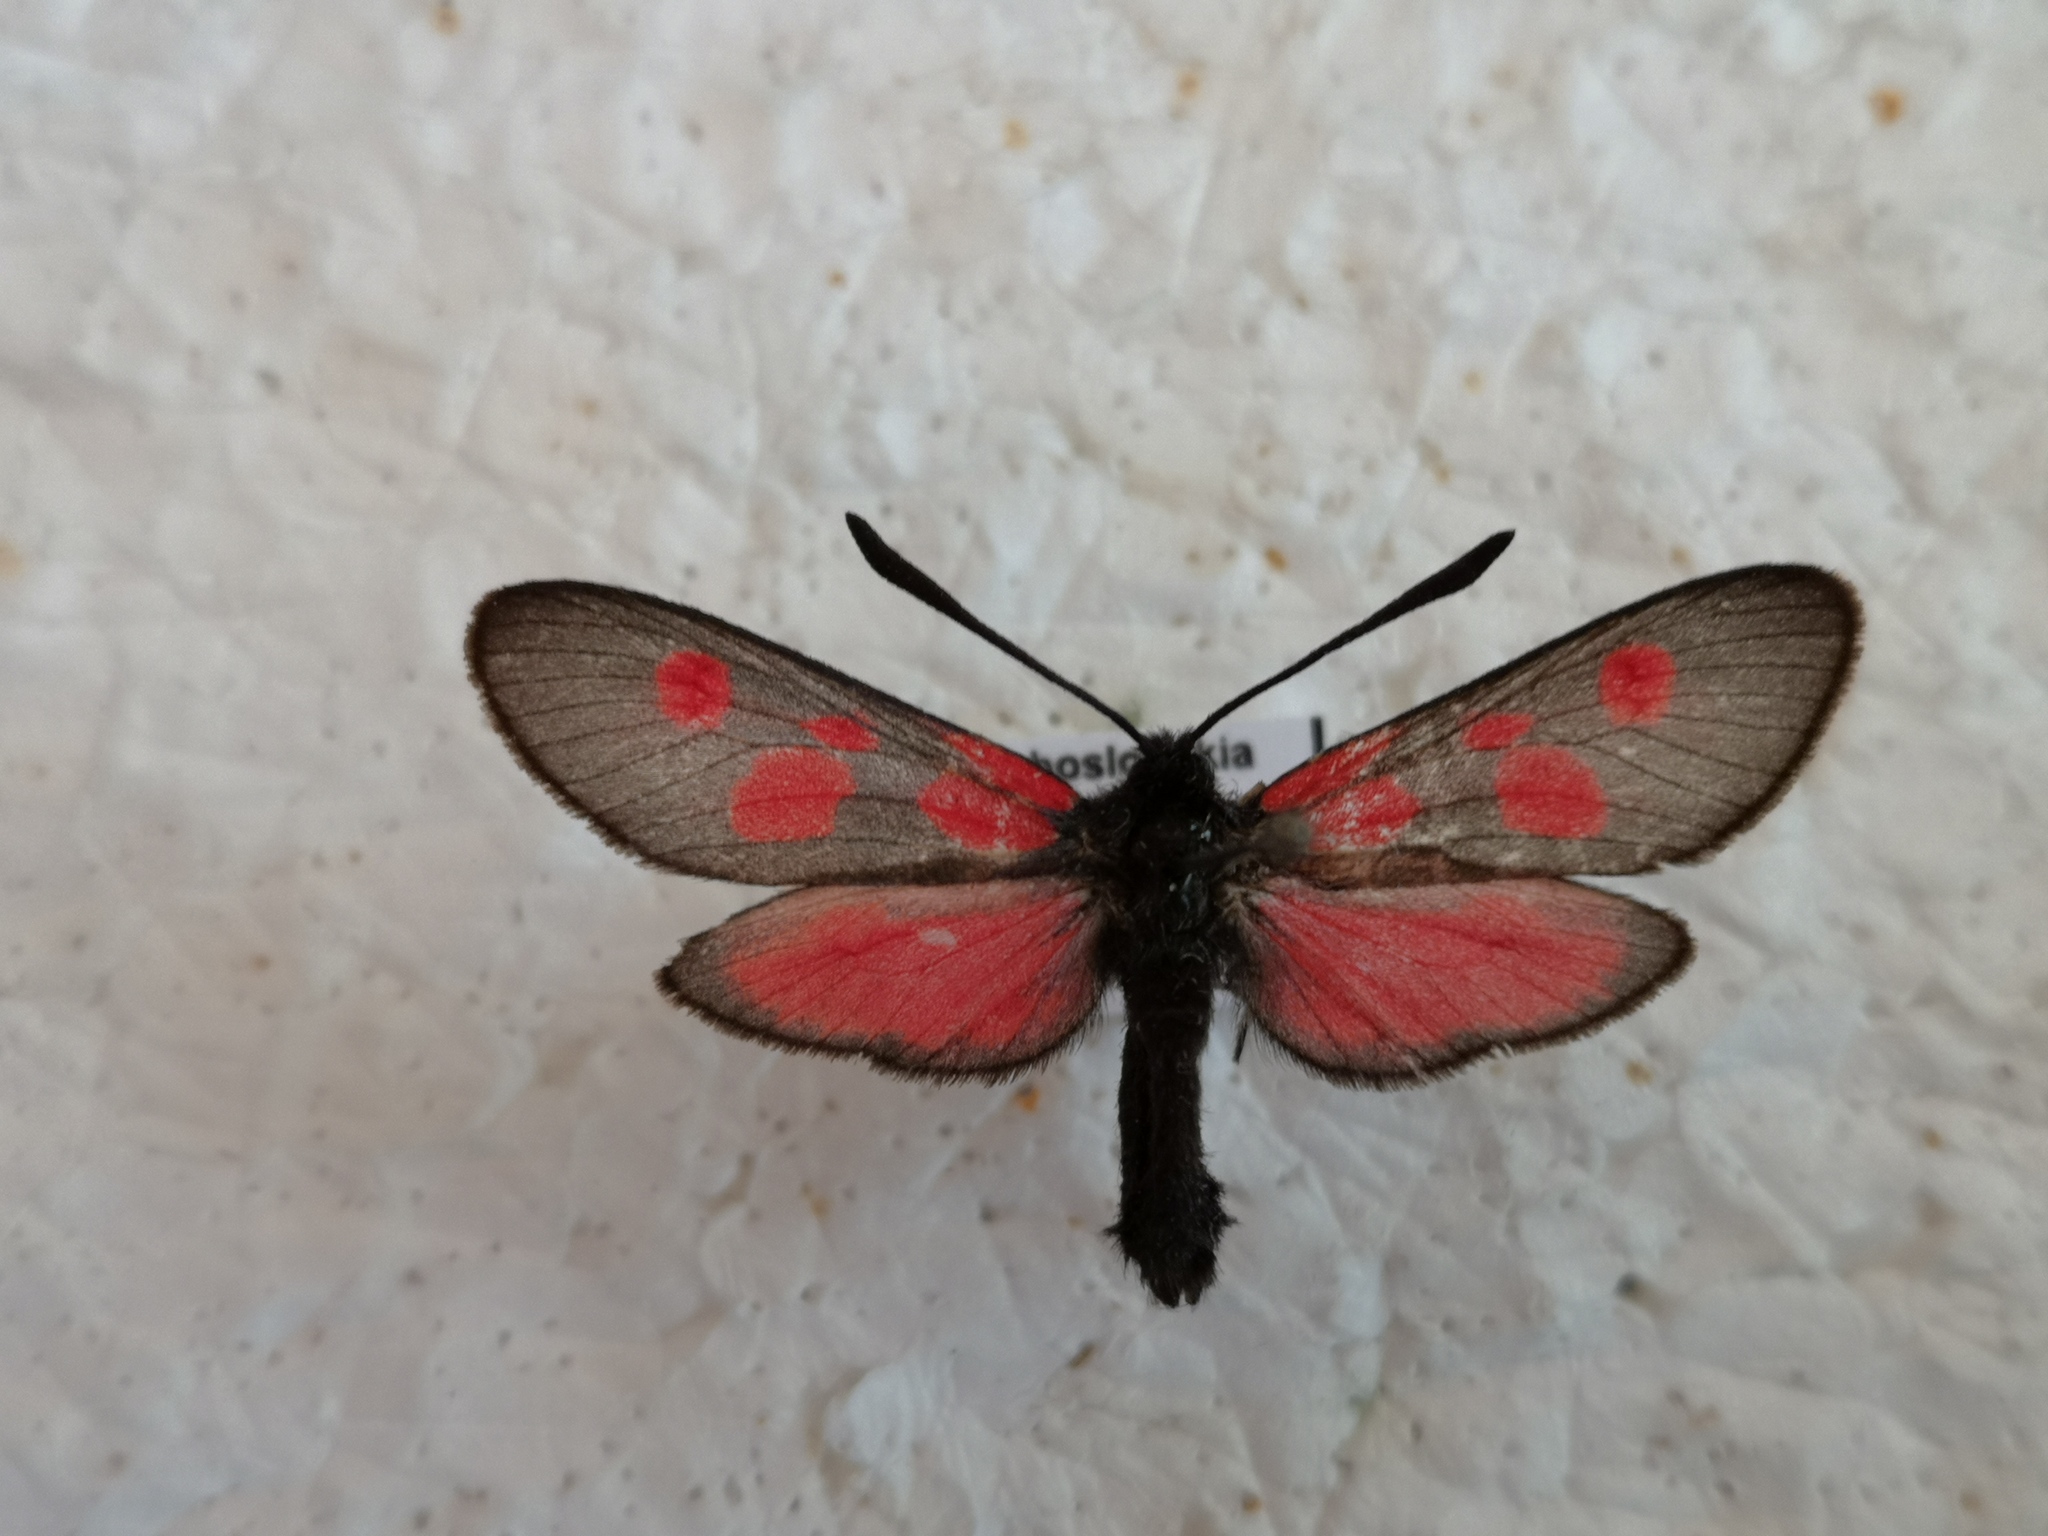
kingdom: Animalia
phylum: Arthropoda
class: Insecta
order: Lepidoptera
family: Zygaenidae
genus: Zygaena
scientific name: Zygaena viciae
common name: New forest burnet
